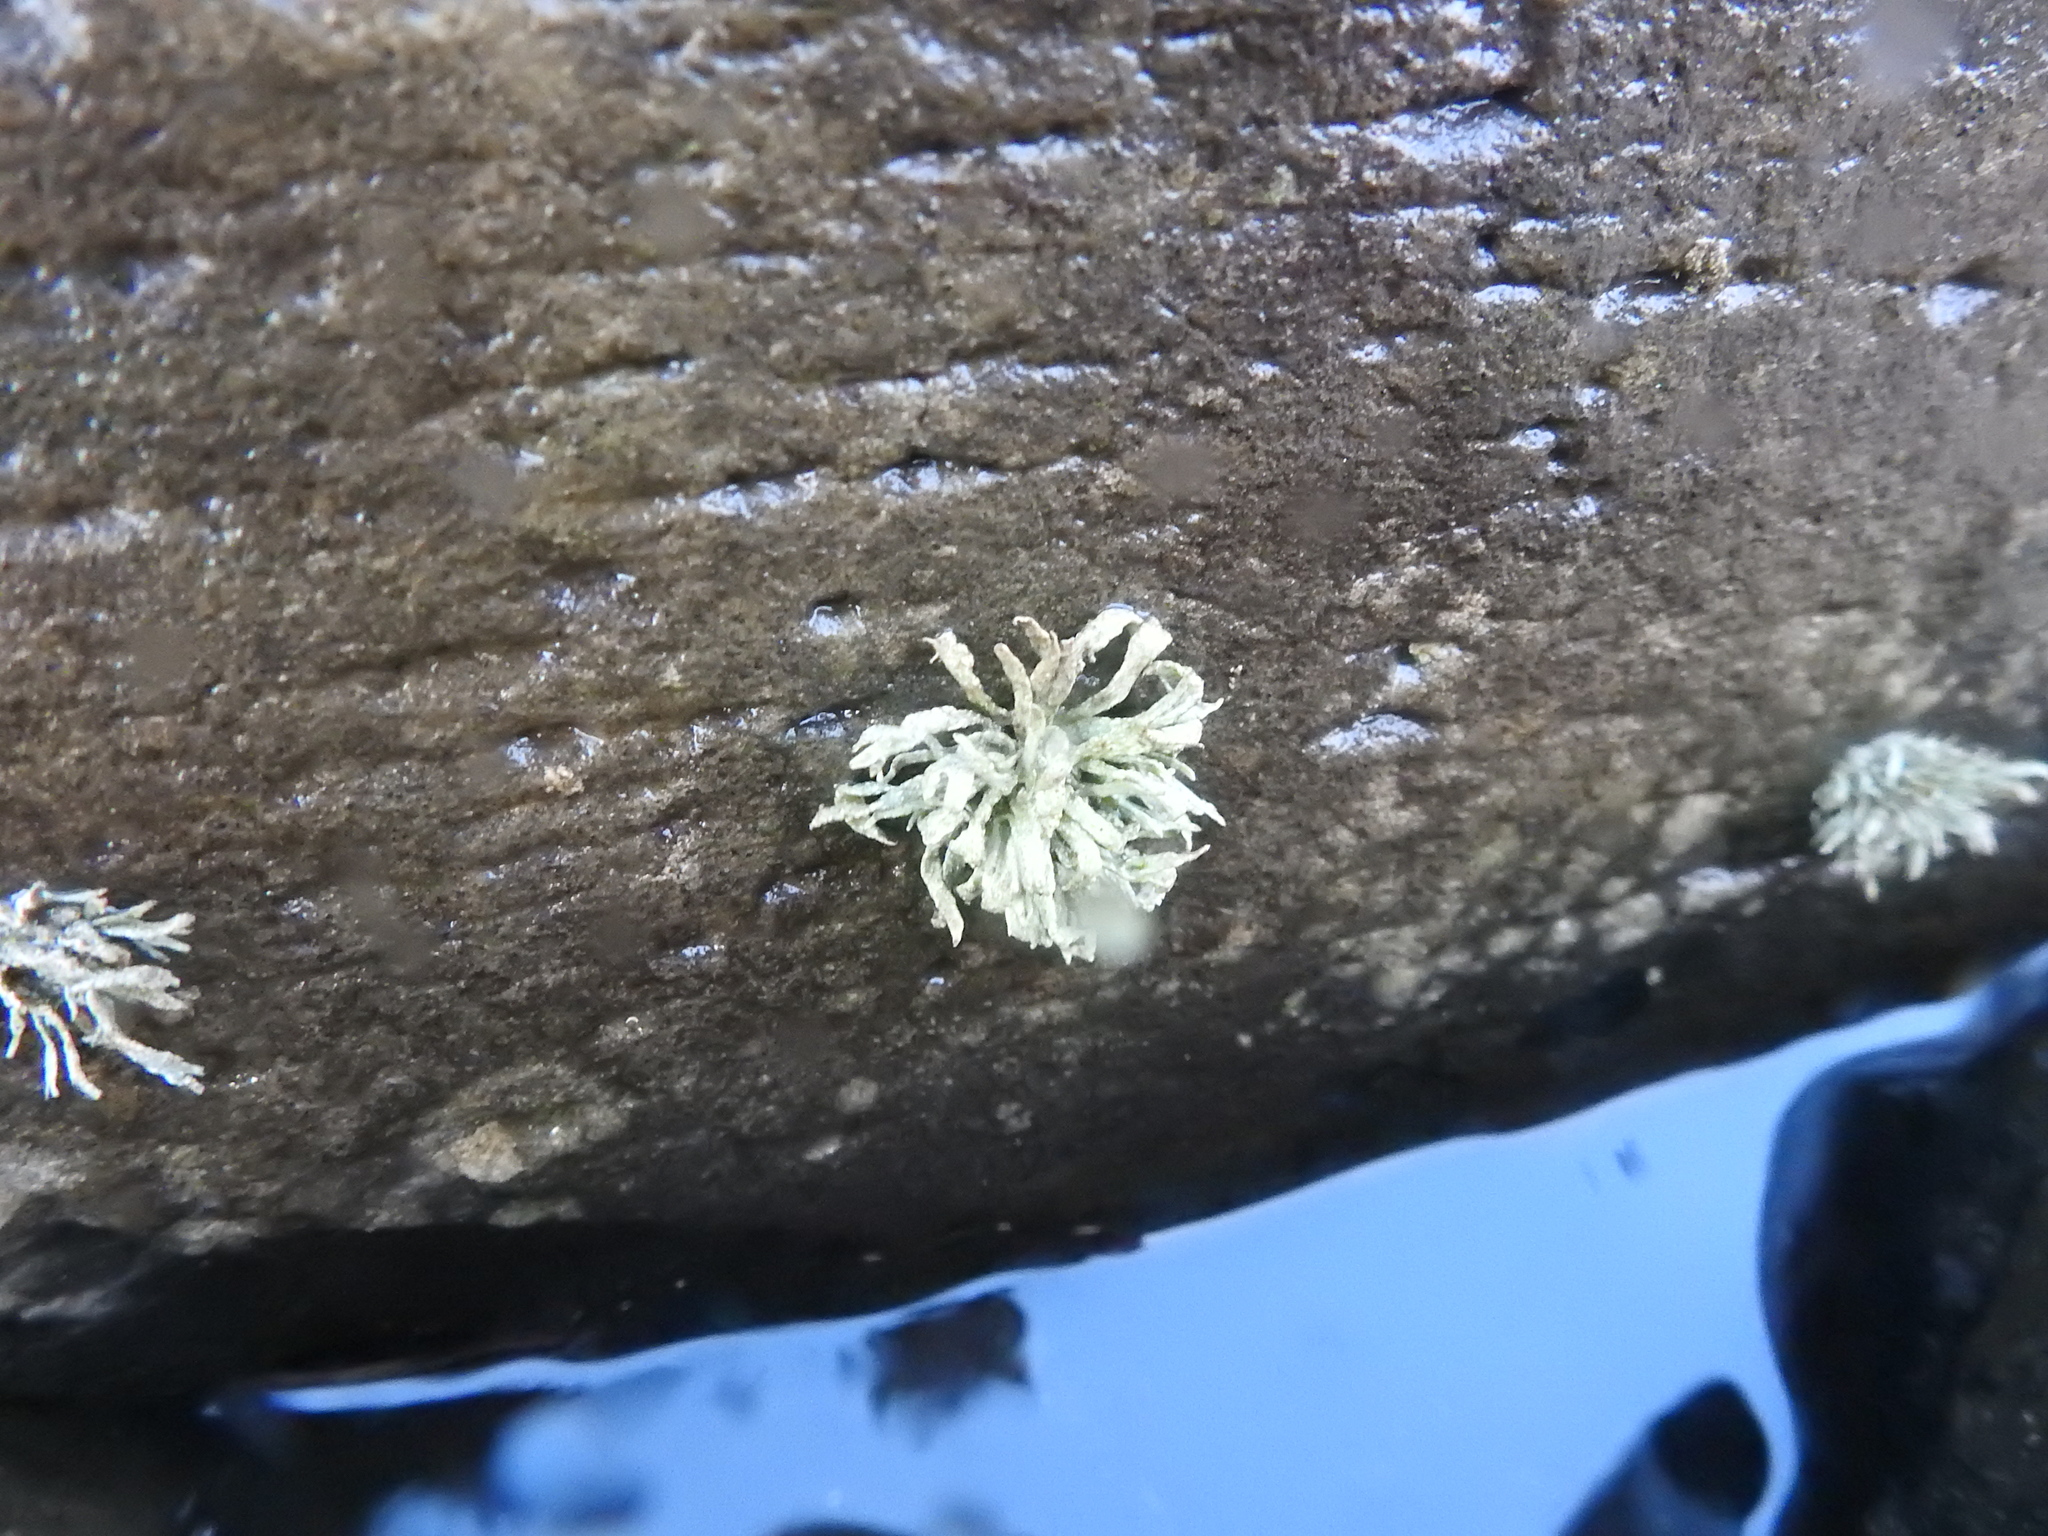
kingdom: Fungi
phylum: Ascomycota
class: Lecanoromycetes
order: Lecanorales
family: Ramalinaceae
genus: Ramalina
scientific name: Ramalina siliquosa
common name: Sea ivory
